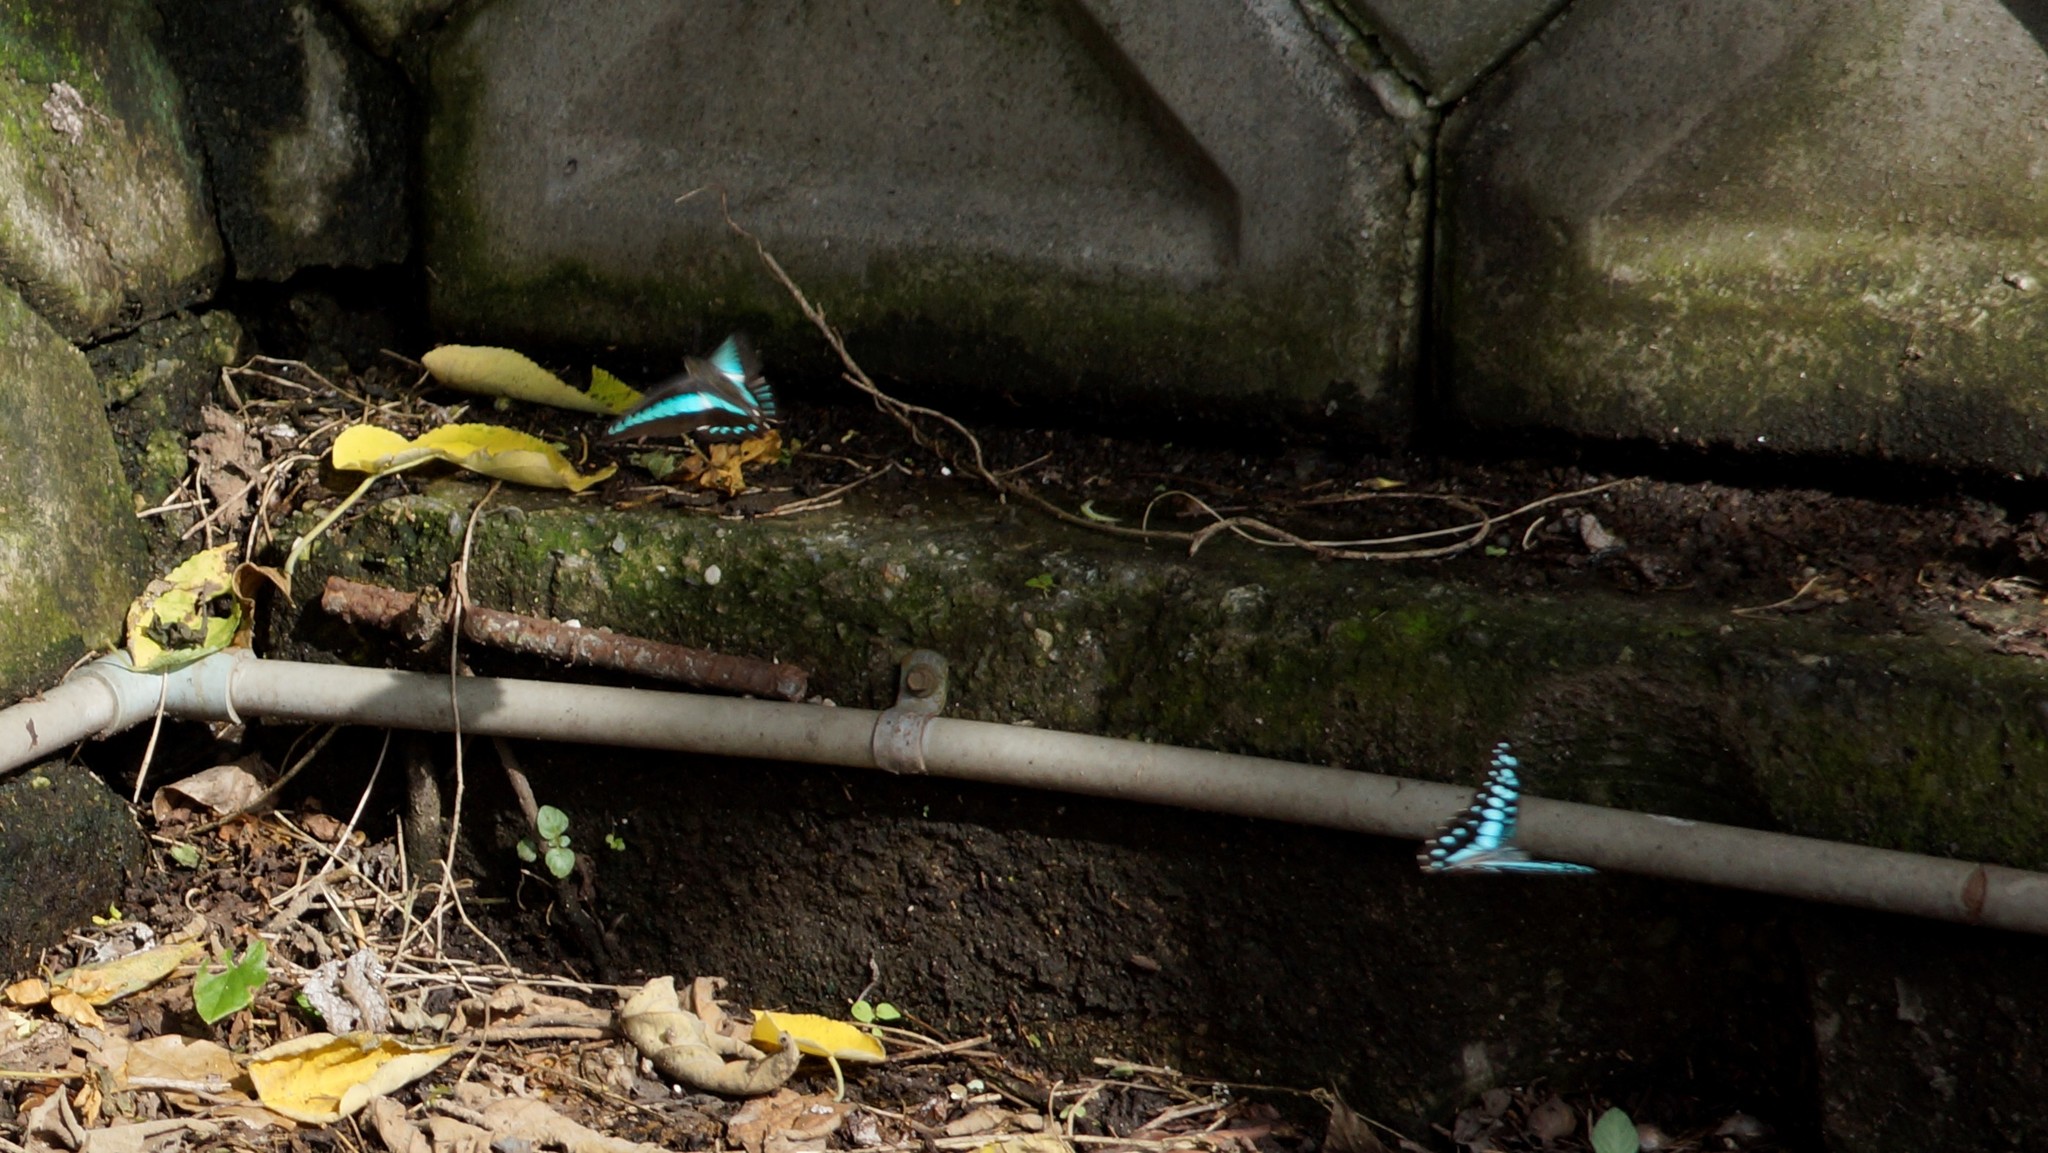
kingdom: Fungi
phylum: Ascomycota
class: Sordariomycetes
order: Microascales
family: Microascaceae
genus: Graphium
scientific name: Graphium sarpedon
